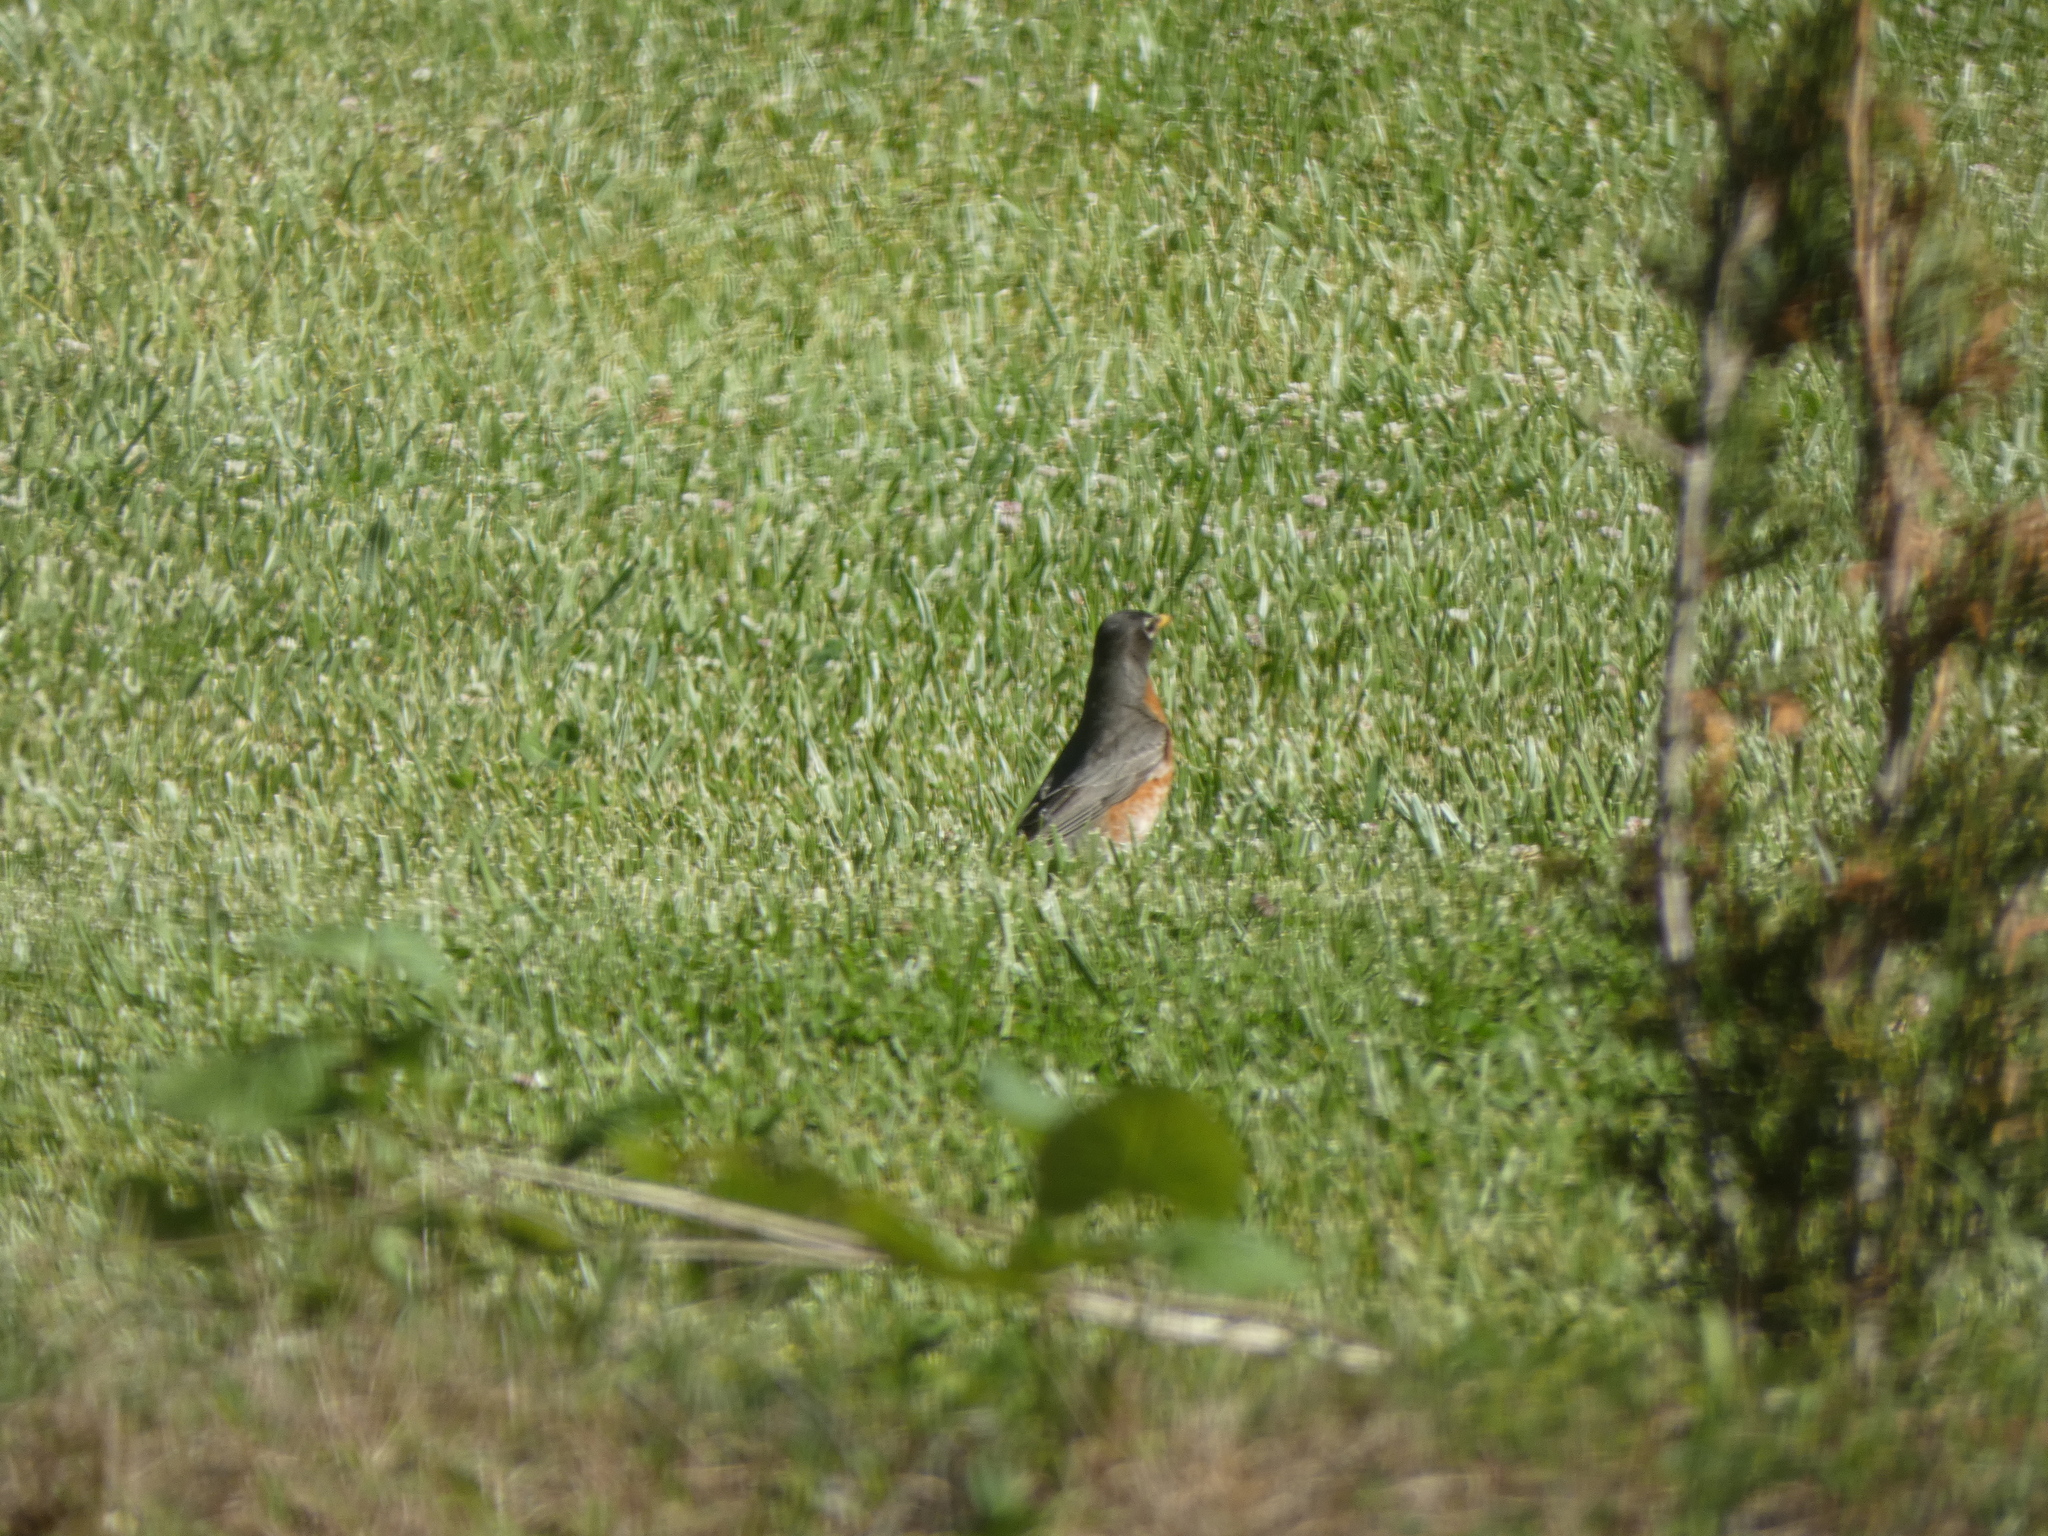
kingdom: Animalia
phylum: Chordata
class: Aves
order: Passeriformes
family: Turdidae
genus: Turdus
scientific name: Turdus migratorius
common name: American robin
